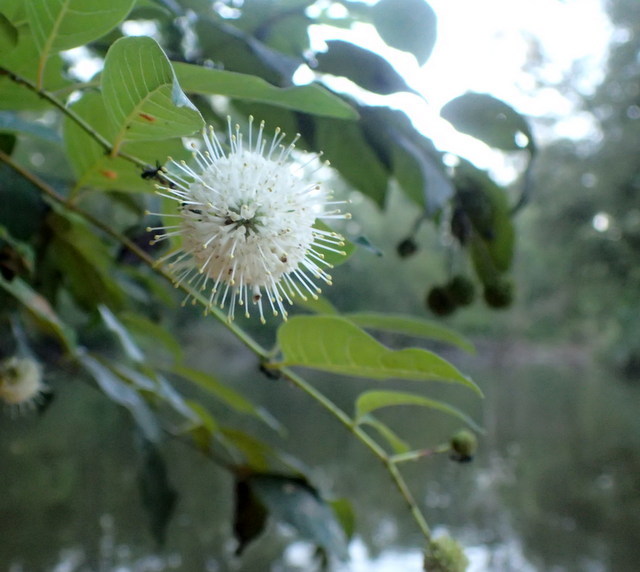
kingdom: Plantae
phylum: Tracheophyta
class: Magnoliopsida
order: Gentianales
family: Rubiaceae
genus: Cephalanthus
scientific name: Cephalanthus occidentalis
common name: Button-willow
